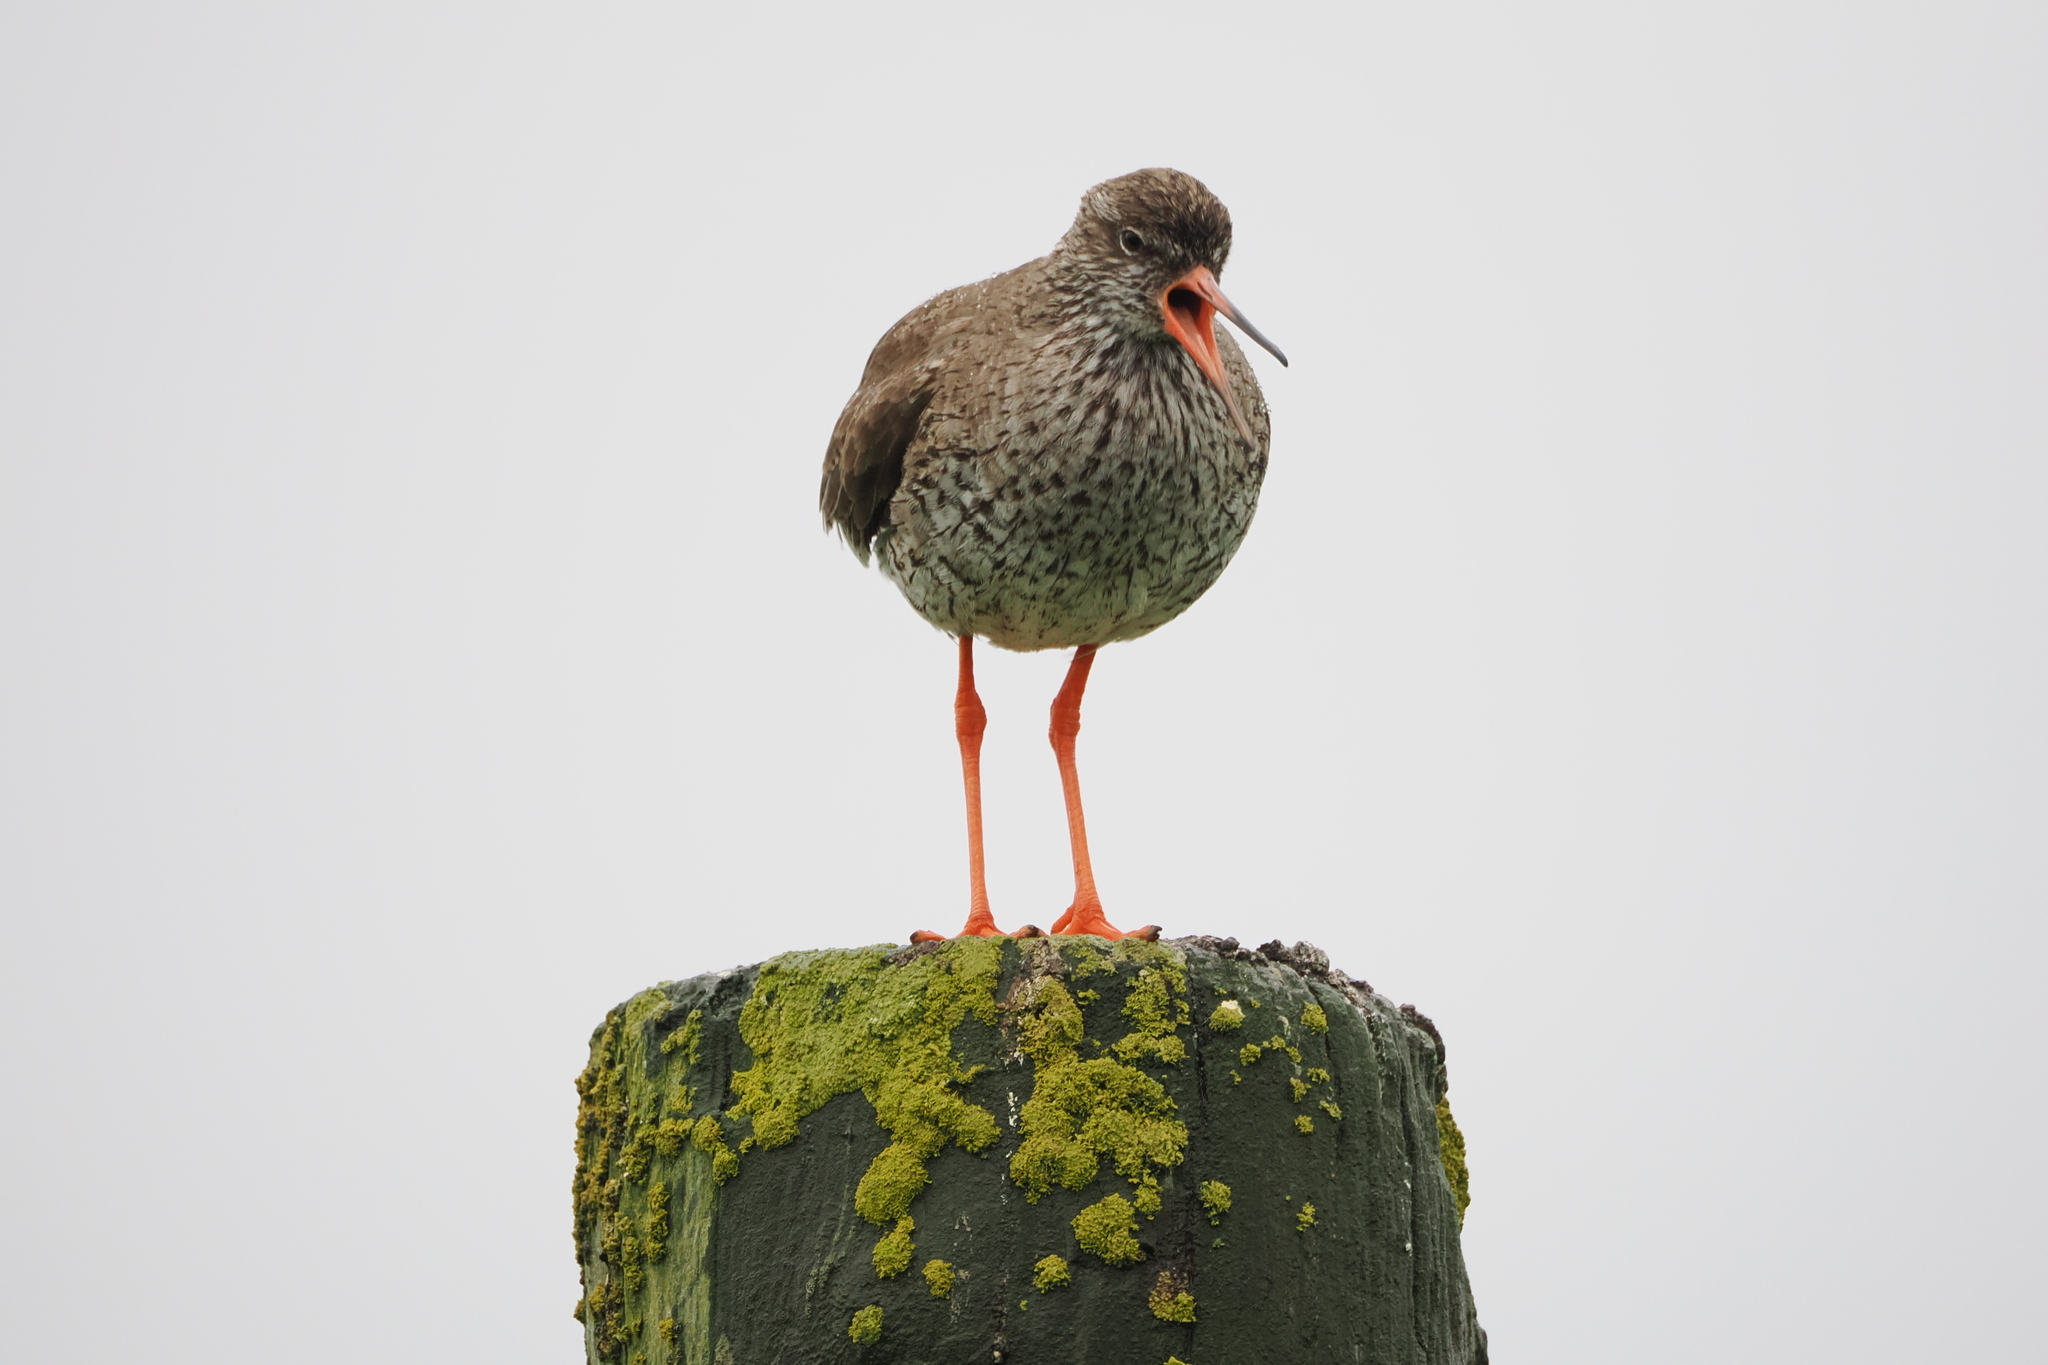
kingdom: Animalia
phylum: Chordata
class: Aves
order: Charadriiformes
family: Scolopacidae
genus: Tringa
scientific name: Tringa totanus
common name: Common redshank
